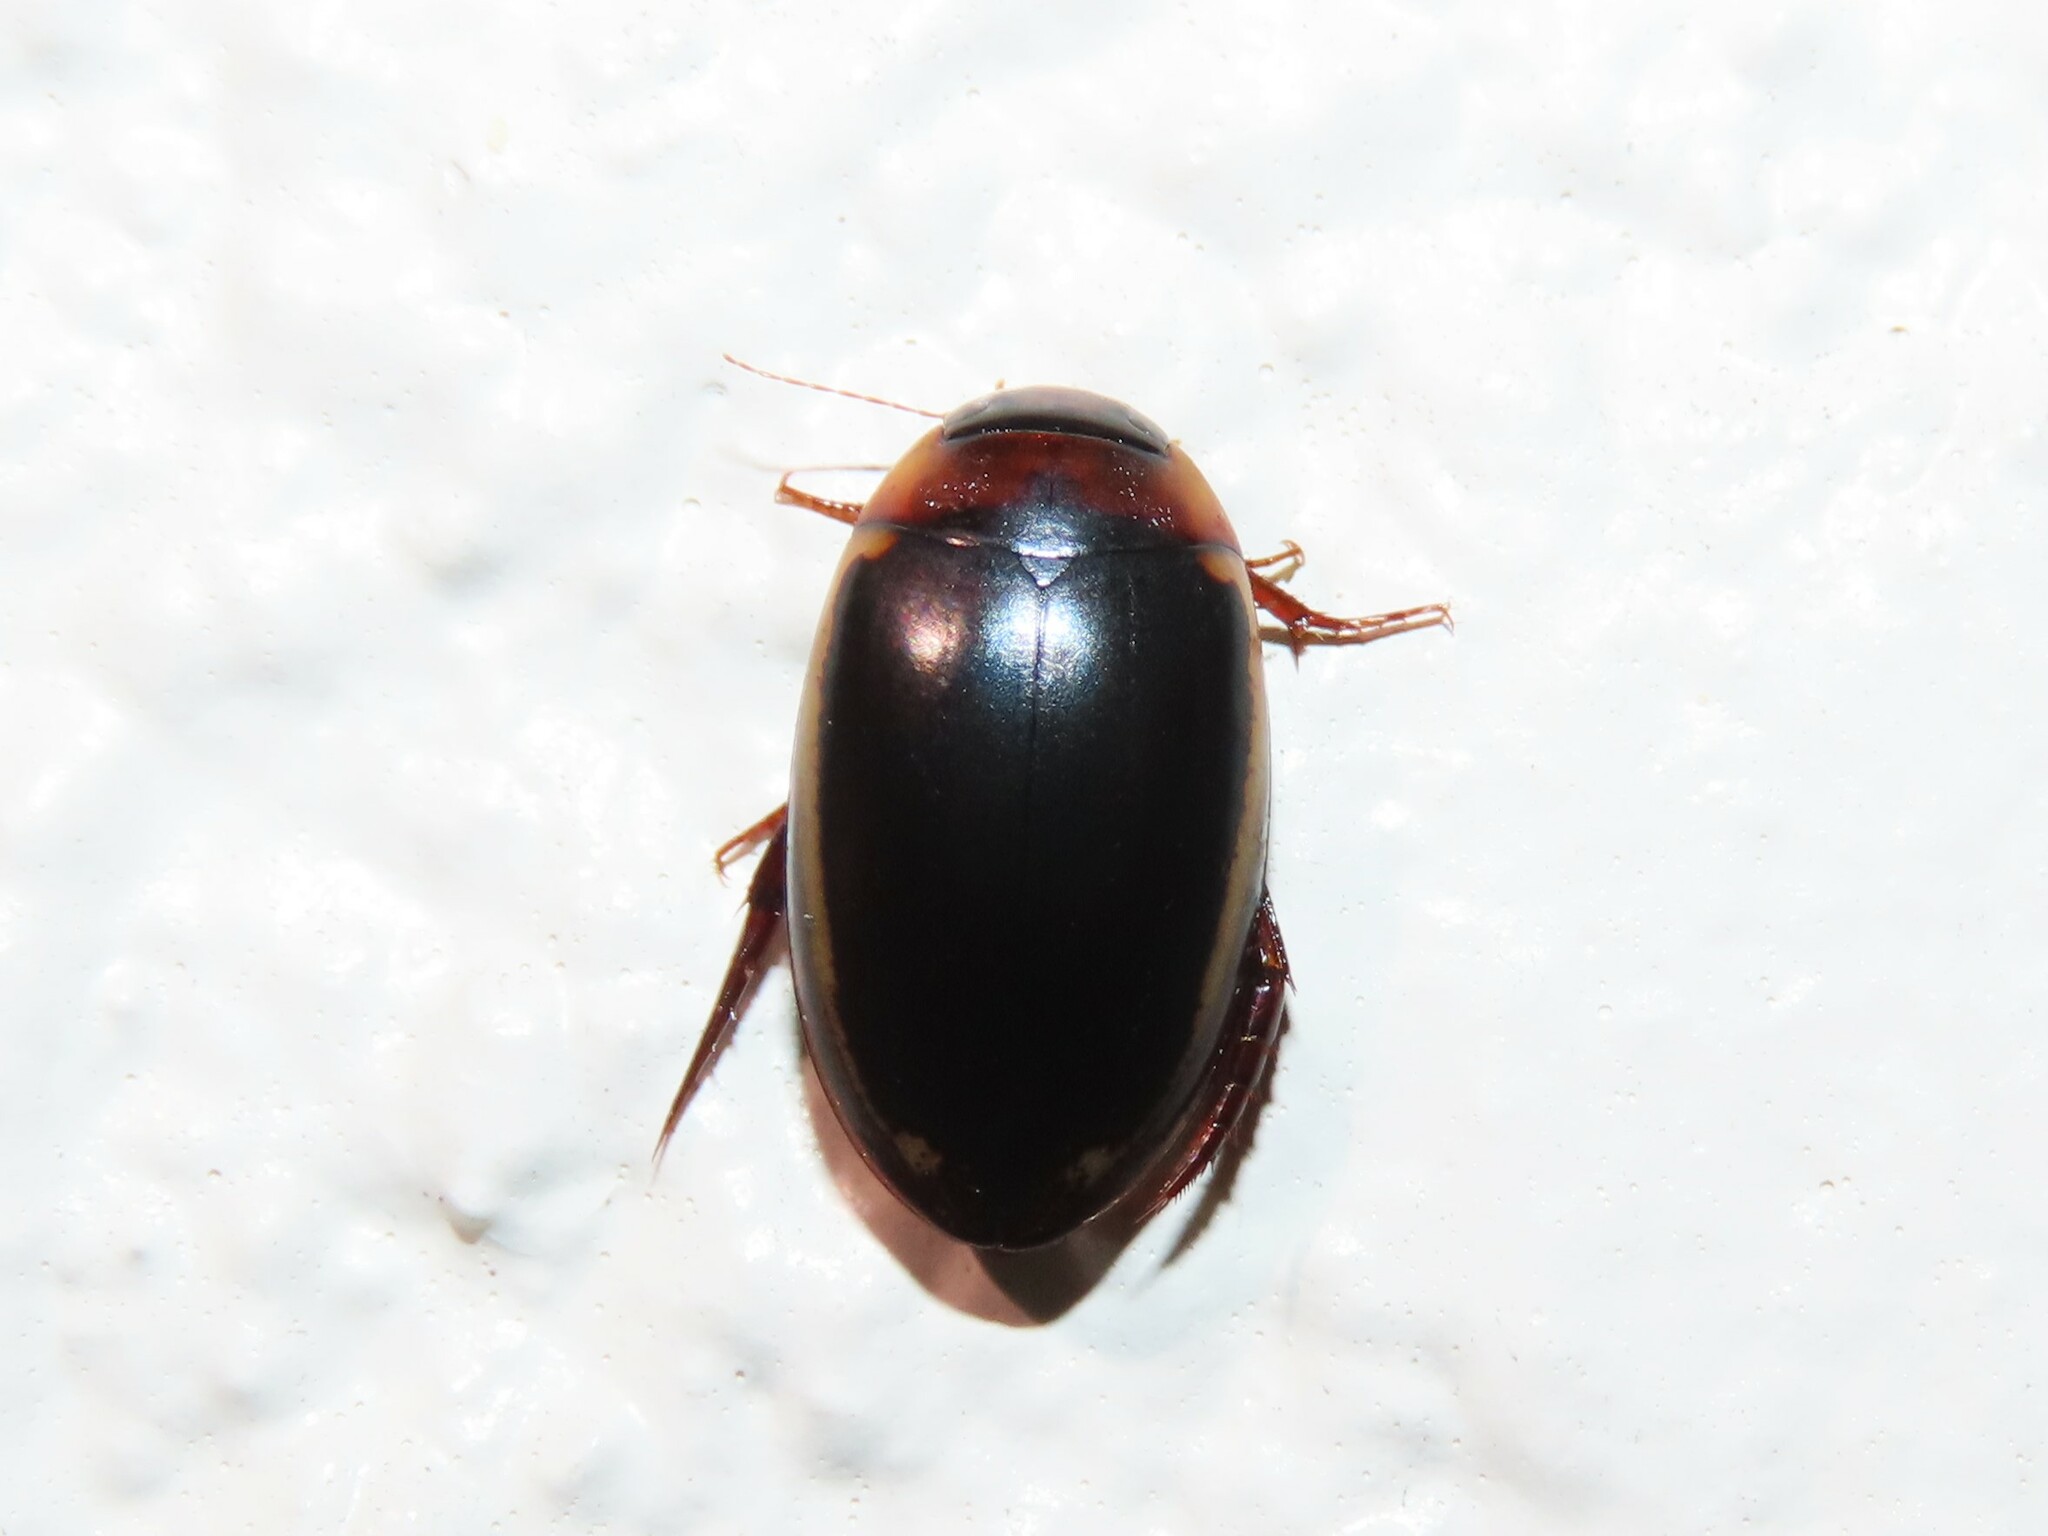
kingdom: Animalia
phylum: Arthropoda
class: Insecta
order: Coleoptera
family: Dytiscidae
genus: Hydaticus
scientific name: Hydaticus bimarginatus
